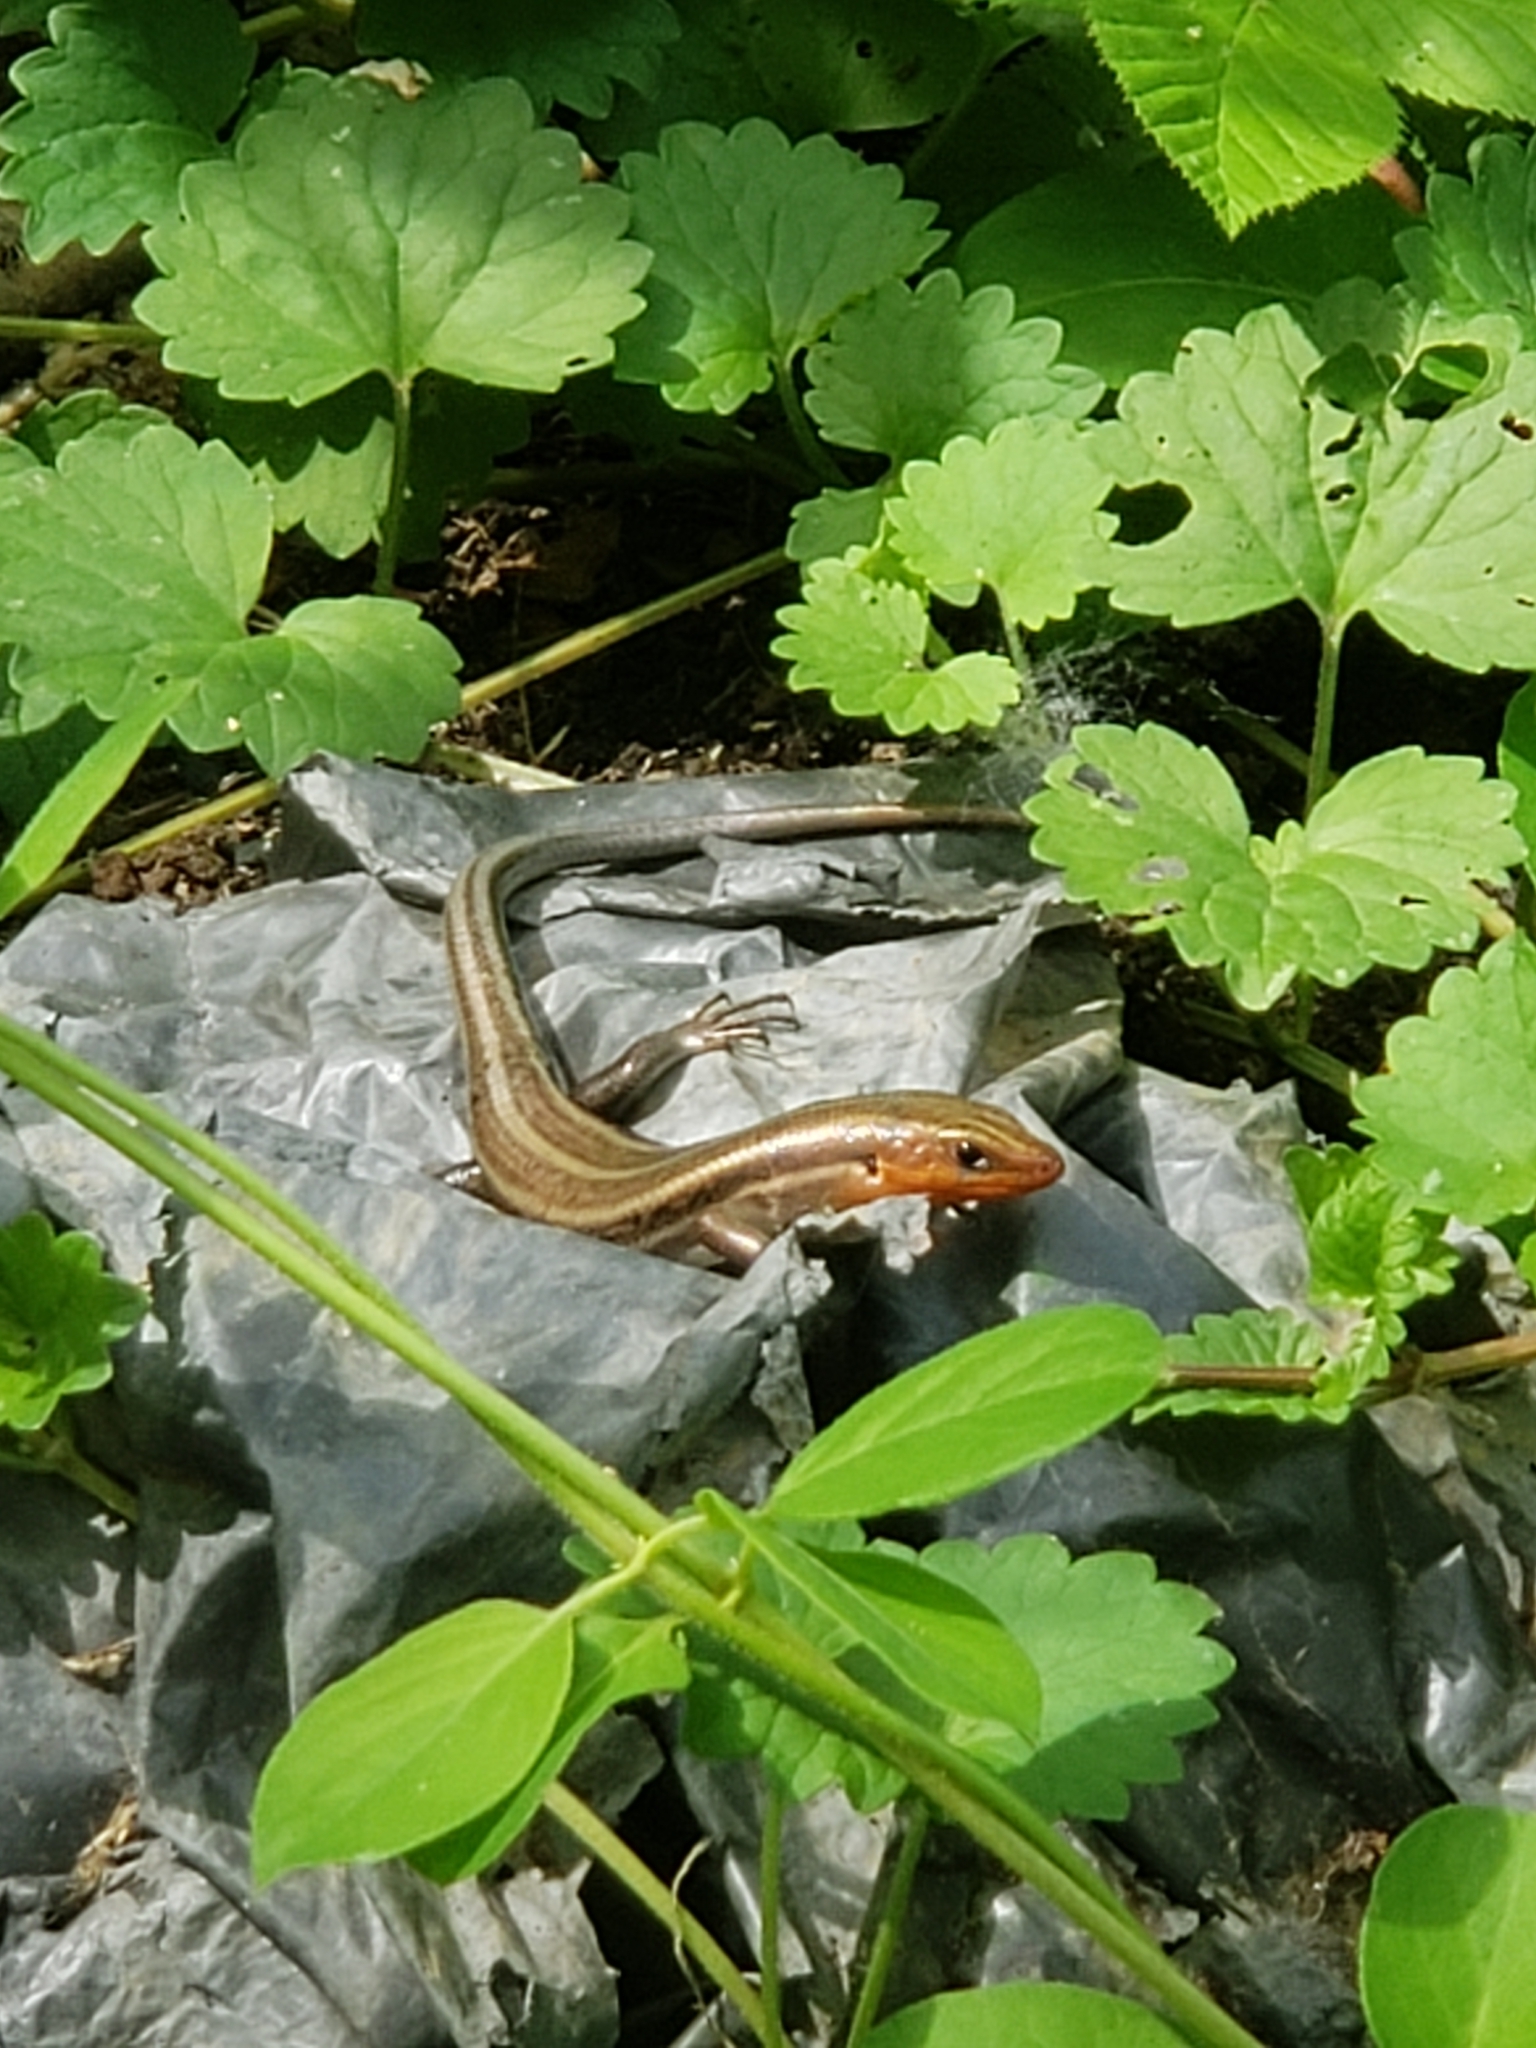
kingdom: Animalia
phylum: Chordata
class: Squamata
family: Scincidae
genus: Plestiodon
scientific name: Plestiodon fasciatus
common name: Five-lined skink
